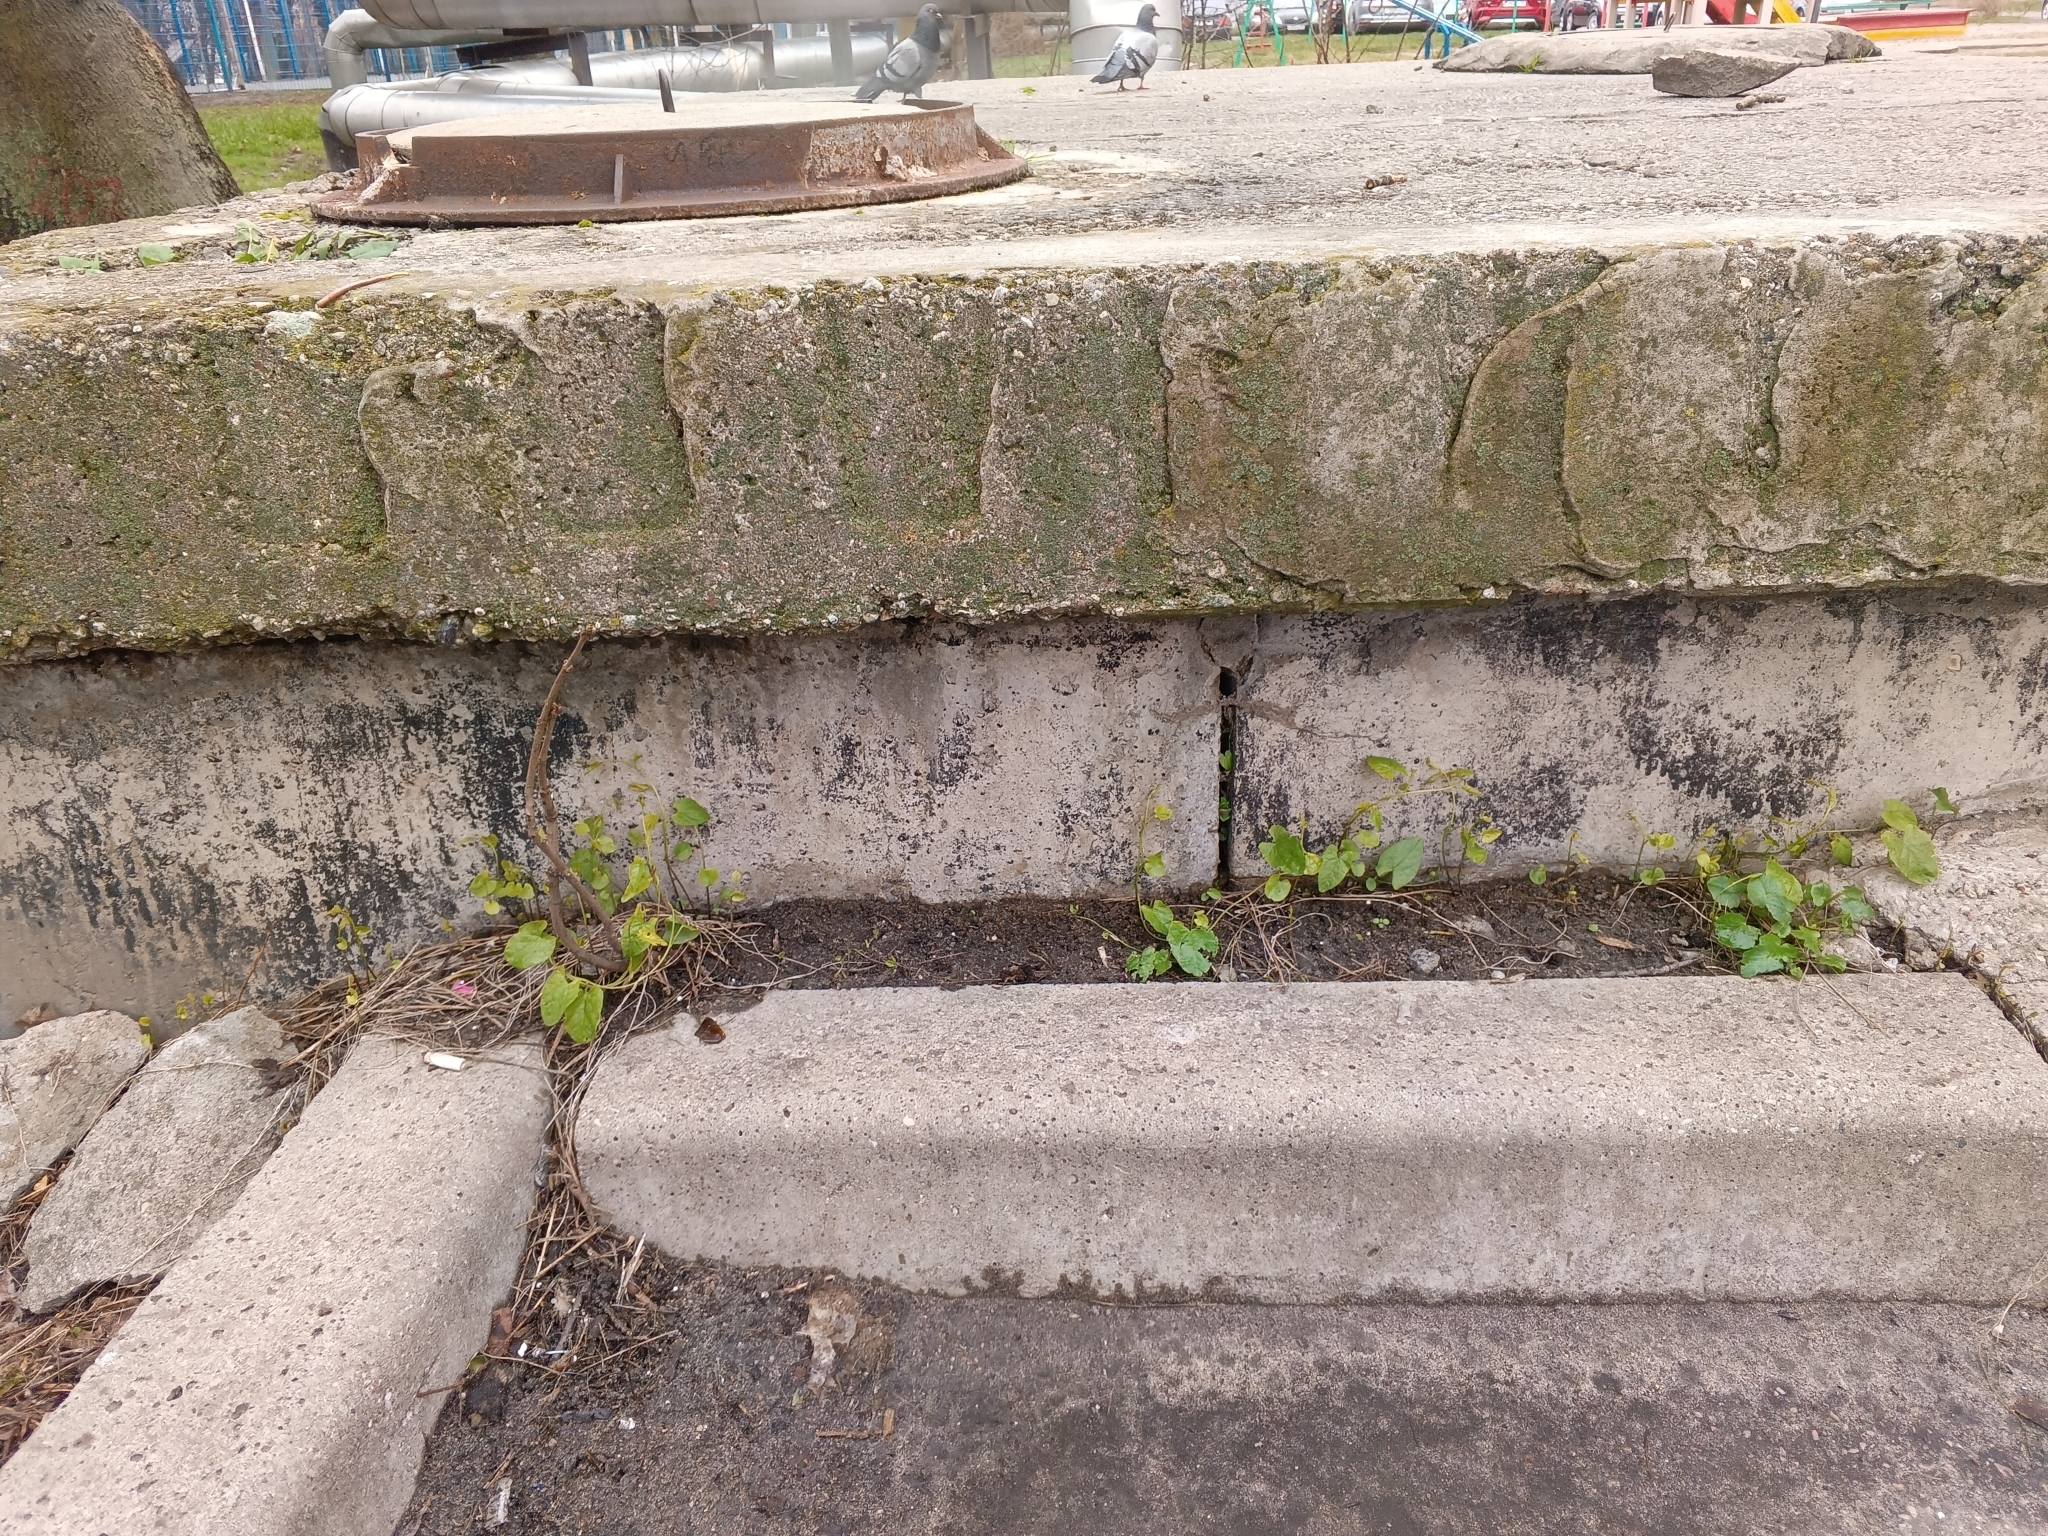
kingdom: Plantae
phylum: Tracheophyta
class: Magnoliopsida
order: Solanales
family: Convolvulaceae
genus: Convolvulus
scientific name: Convolvulus arvensis
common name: Field bindweed
